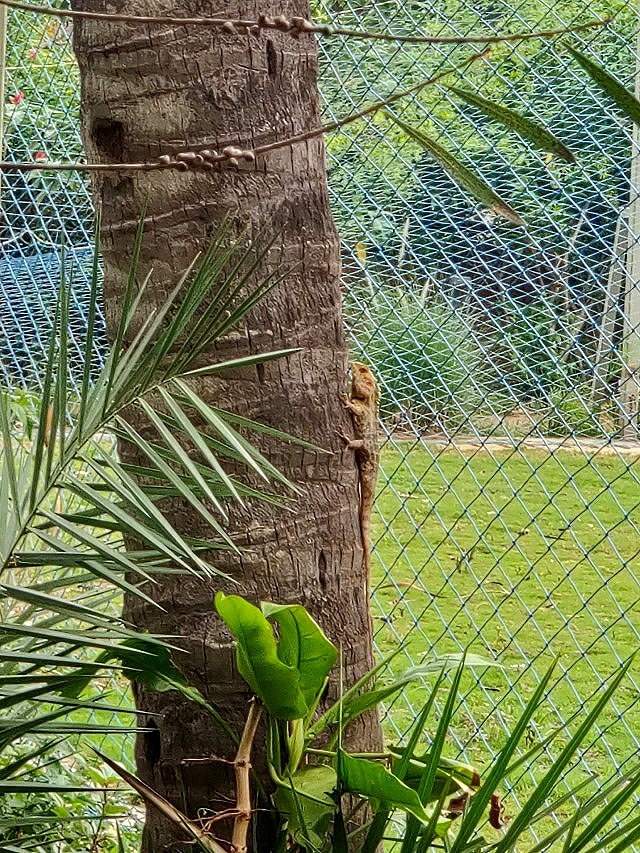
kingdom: Animalia
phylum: Chordata
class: Squamata
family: Agamidae
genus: Calotes
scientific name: Calotes versicolor
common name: Oriental garden lizard
